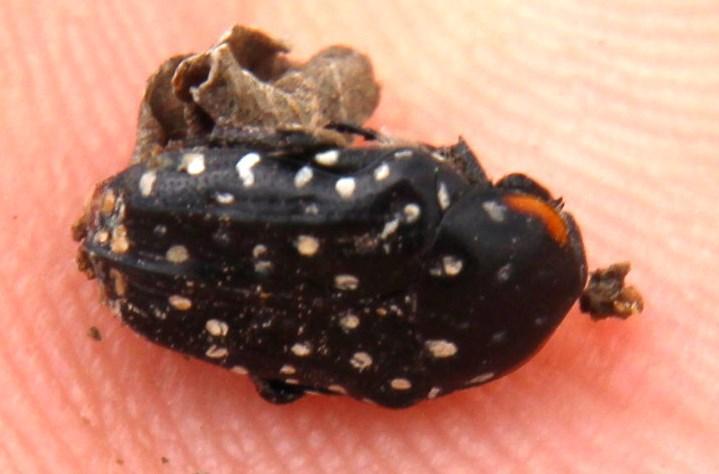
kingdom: Animalia
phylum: Arthropoda
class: Insecta
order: Coleoptera
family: Scarabaeidae
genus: Oxythyrea
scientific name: Oxythyrea
